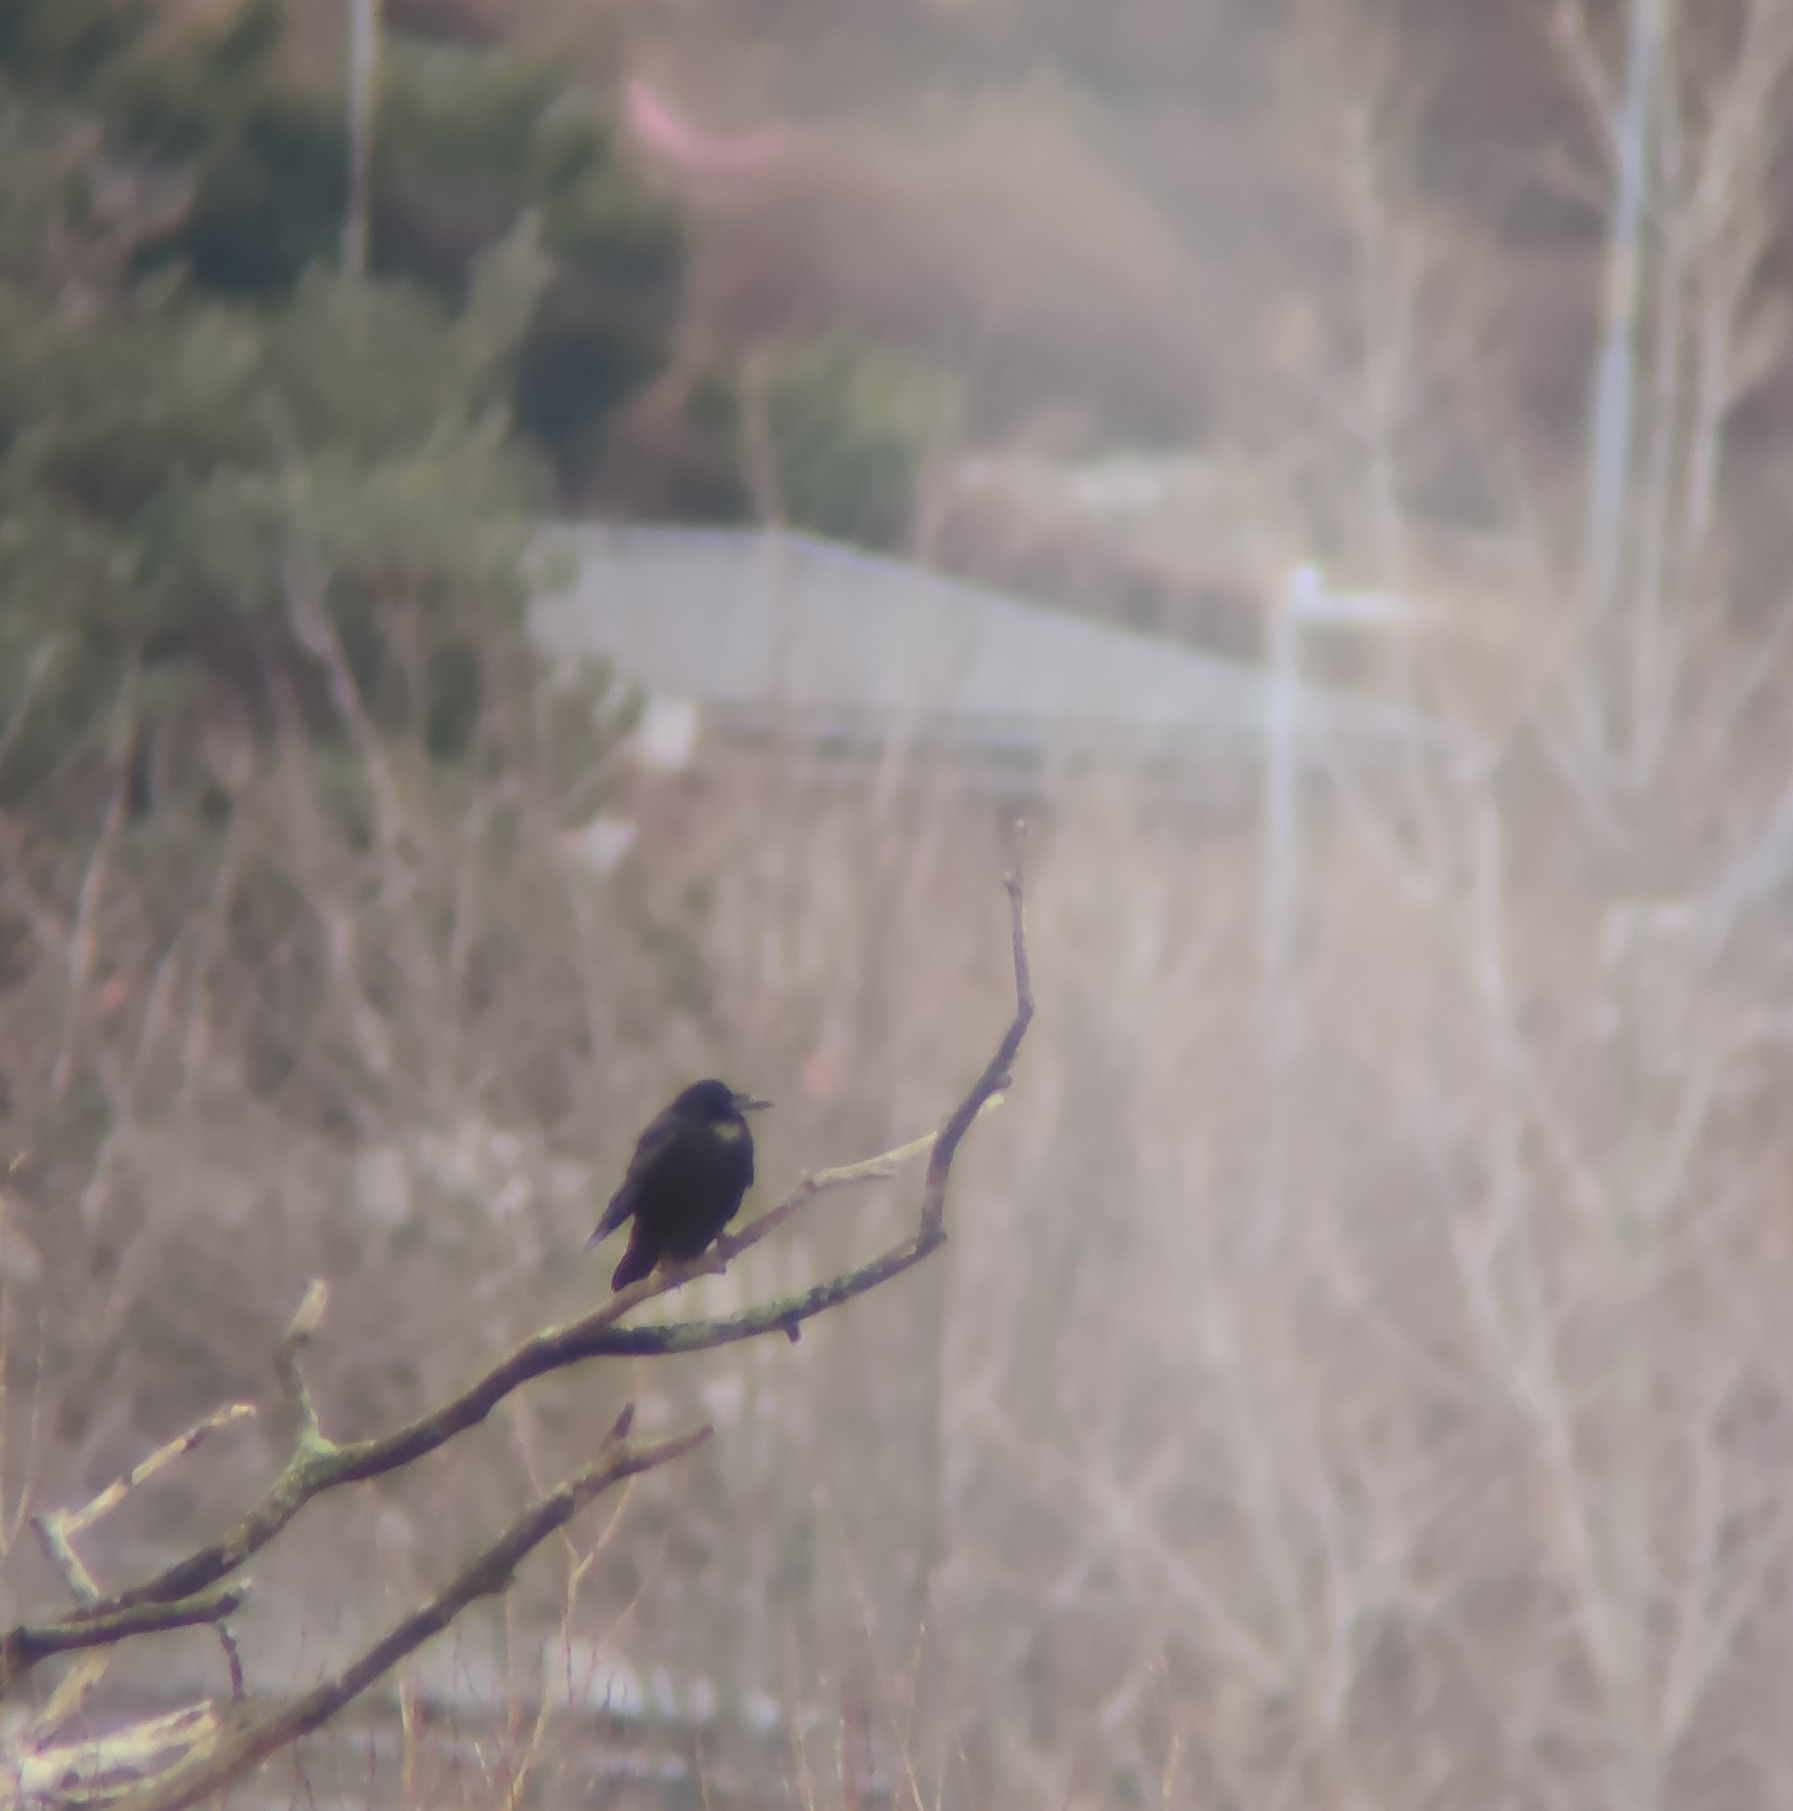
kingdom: Animalia
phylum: Chordata
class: Aves
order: Passeriformes
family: Corvidae
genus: Corvus
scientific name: Corvus frugilegus
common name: Rook
